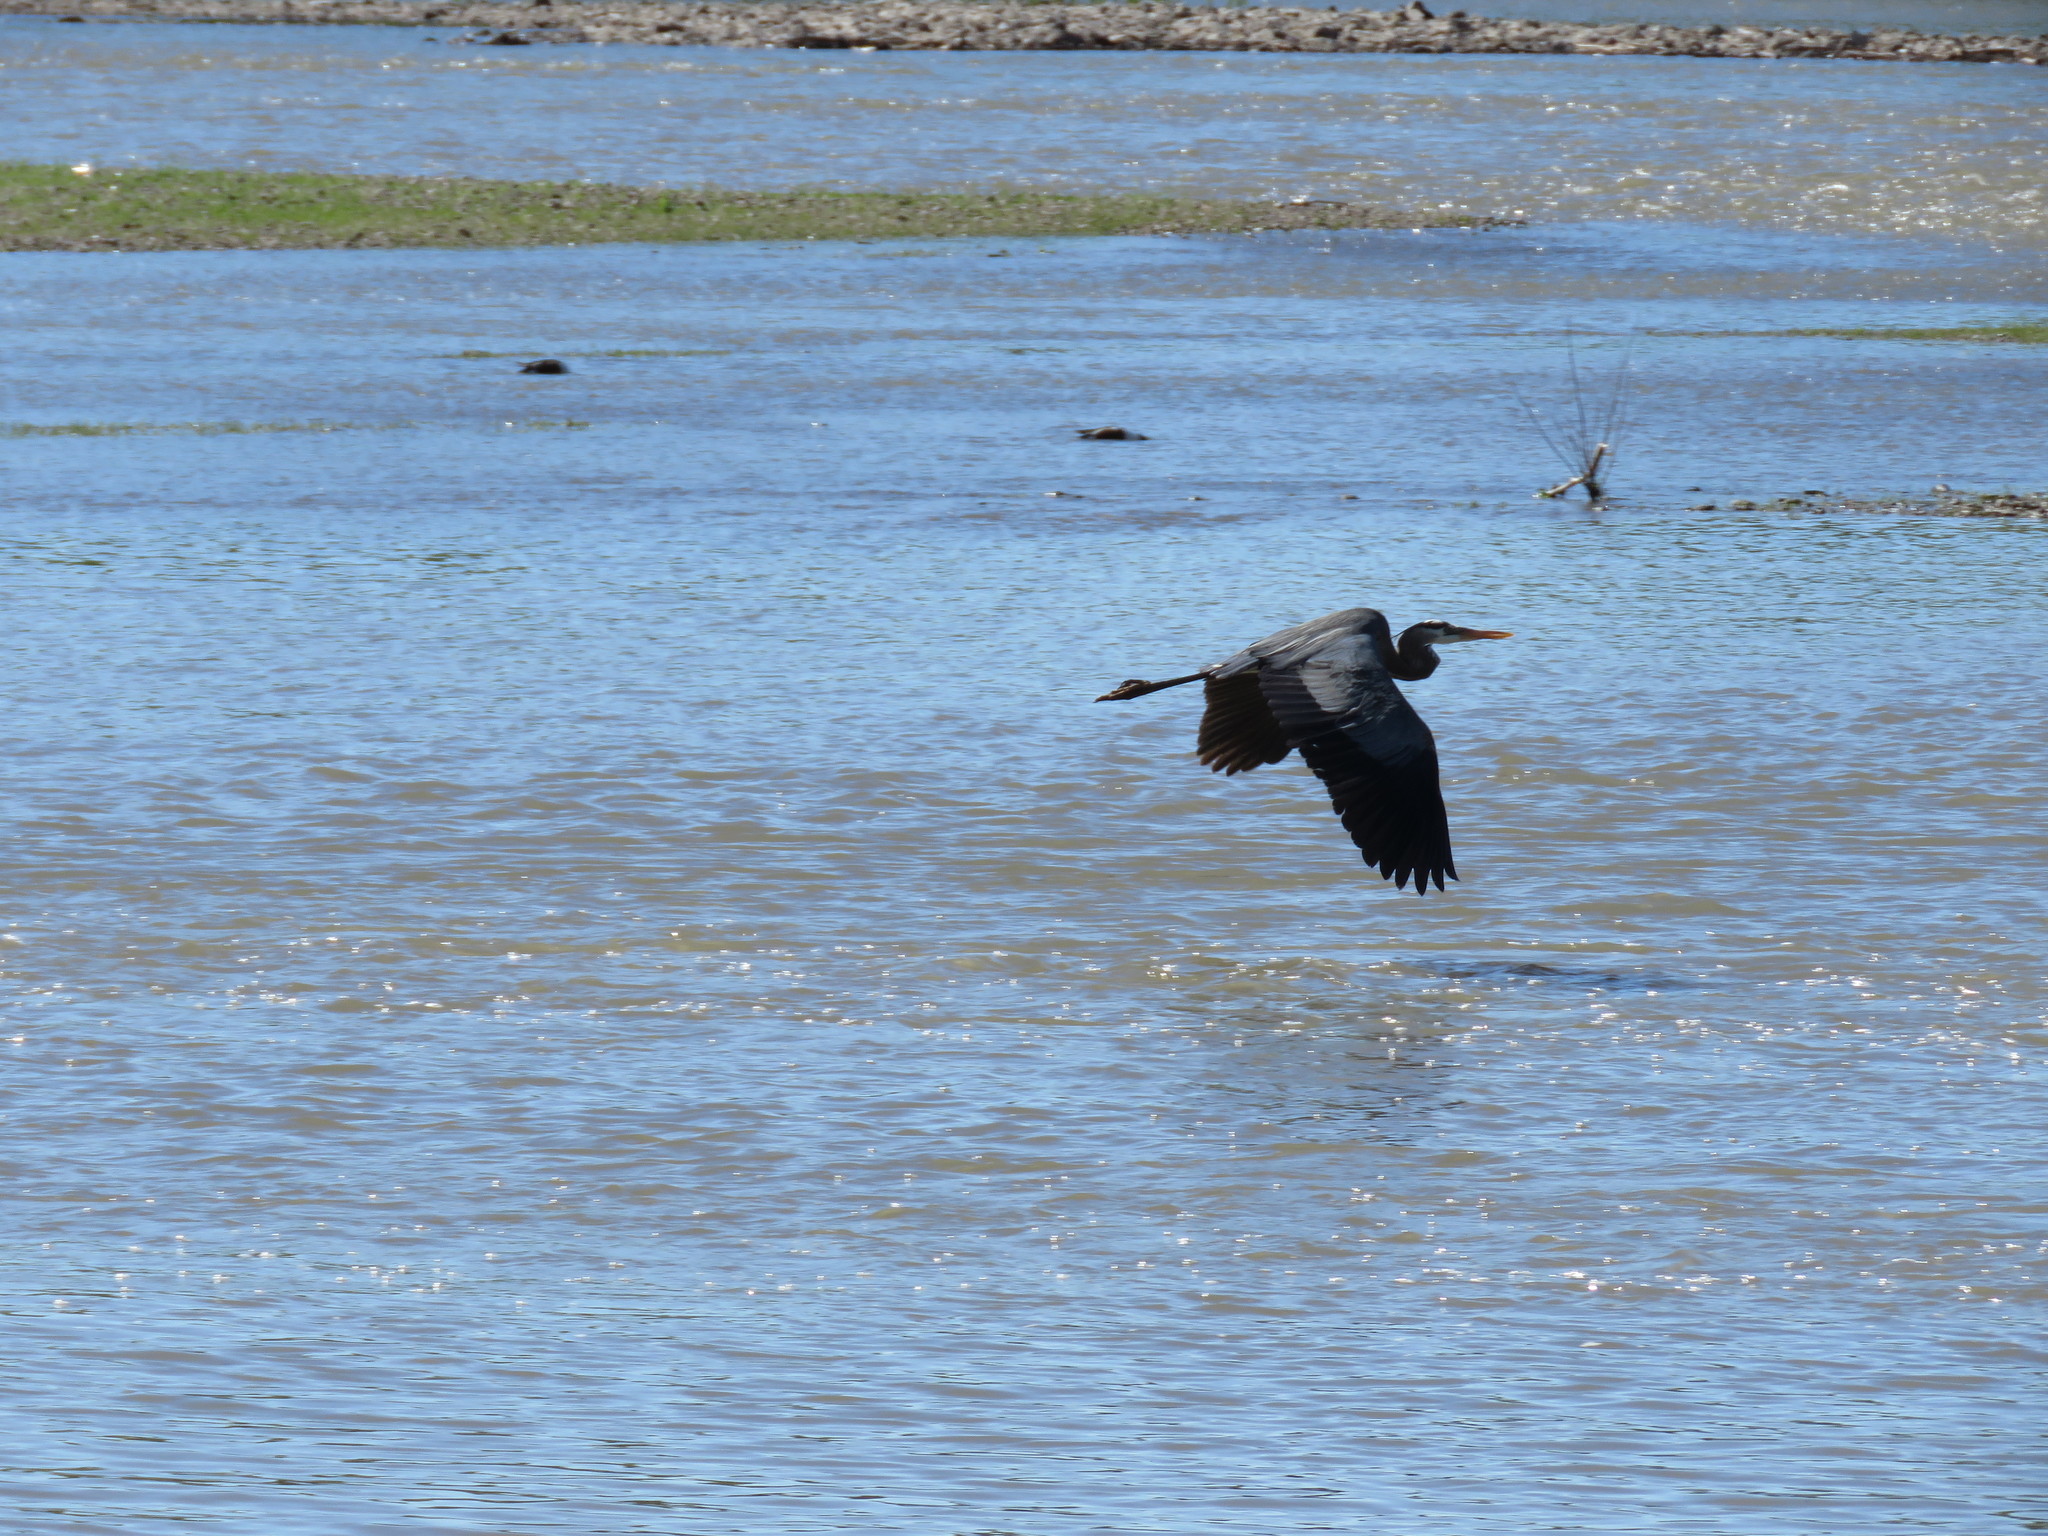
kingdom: Animalia
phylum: Chordata
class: Aves
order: Pelecaniformes
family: Ardeidae
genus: Ardea
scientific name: Ardea herodias
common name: Great blue heron
